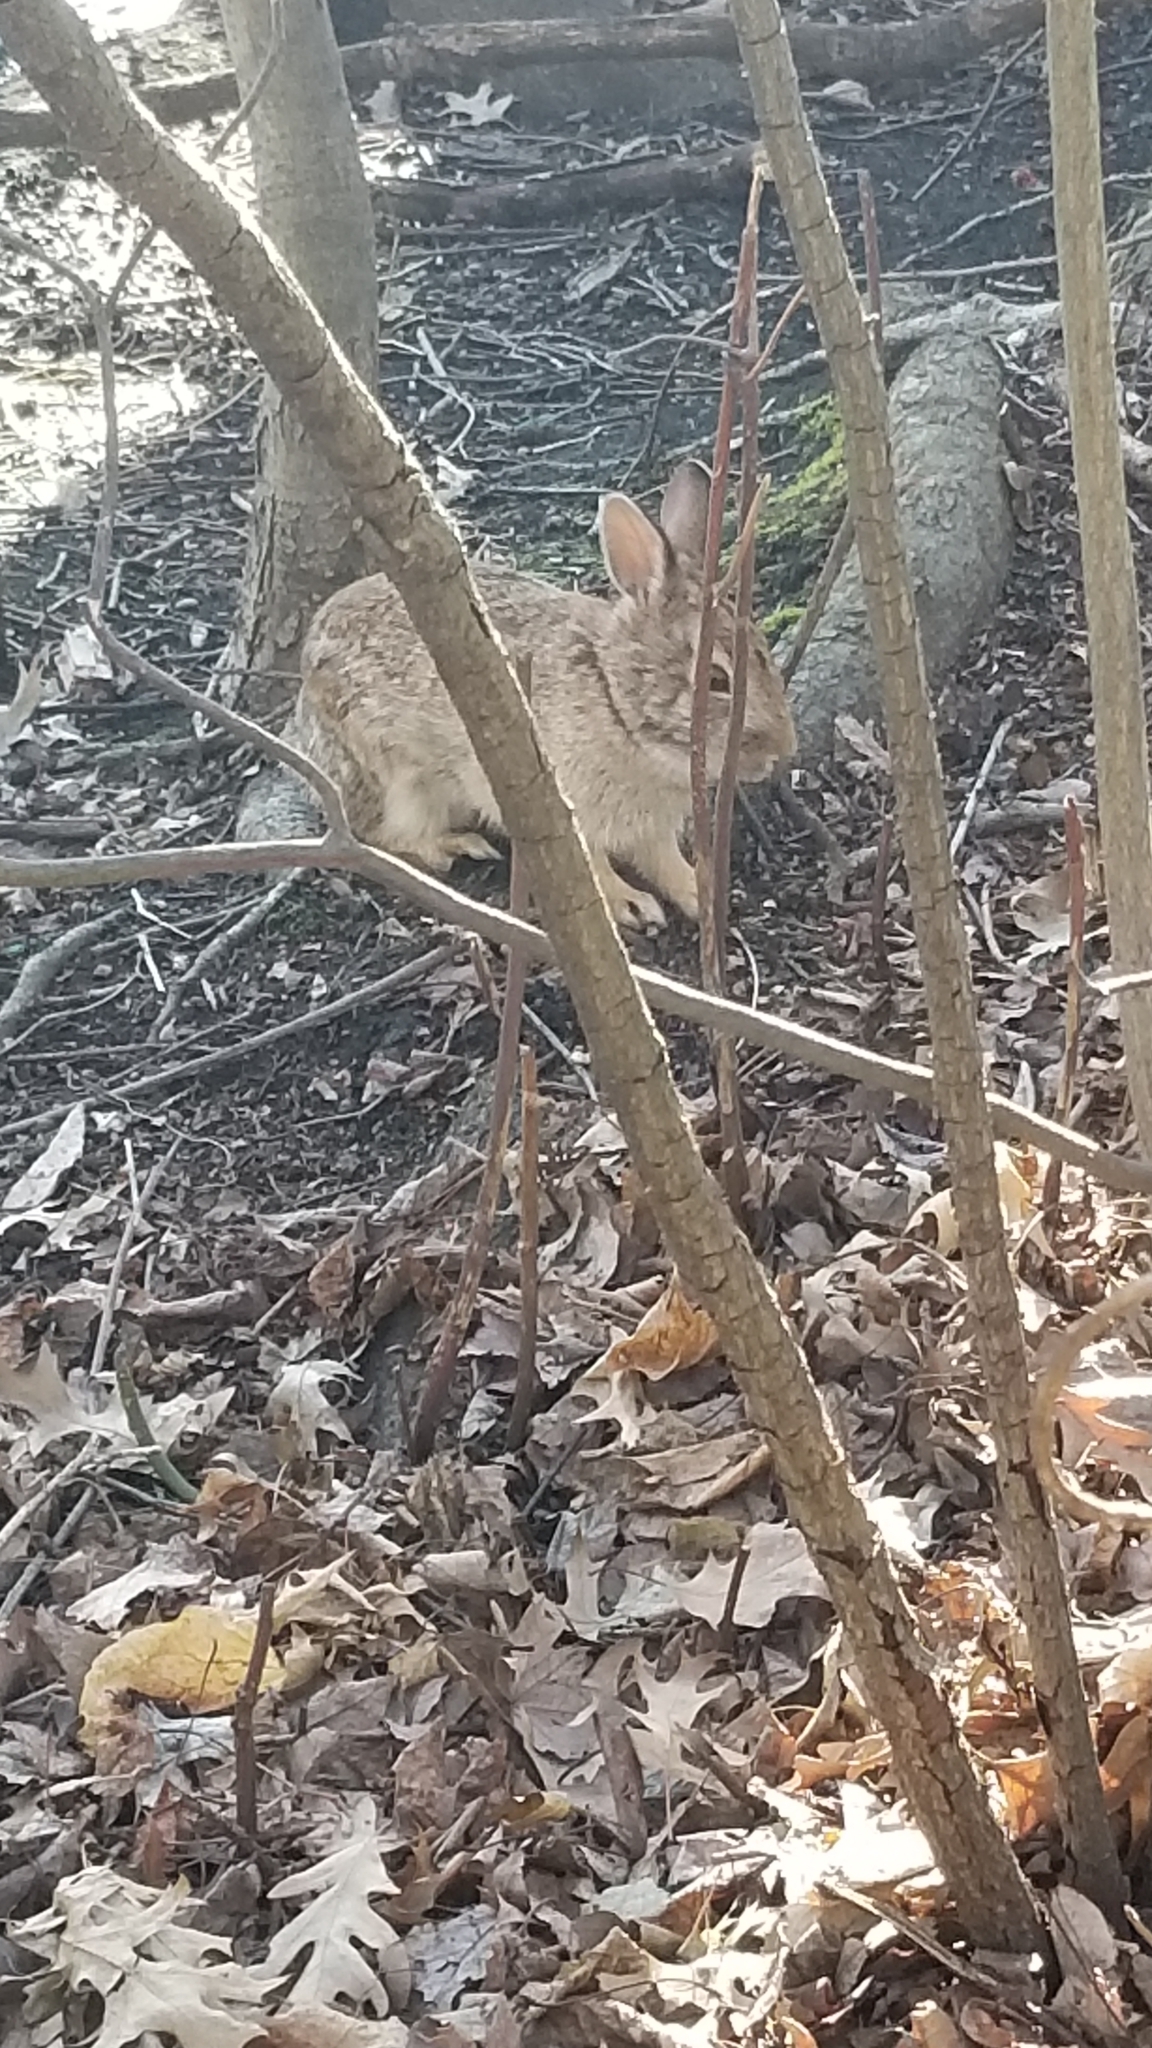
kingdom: Animalia
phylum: Chordata
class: Mammalia
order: Lagomorpha
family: Leporidae
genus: Sylvilagus
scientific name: Sylvilagus floridanus
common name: Eastern cottontail
